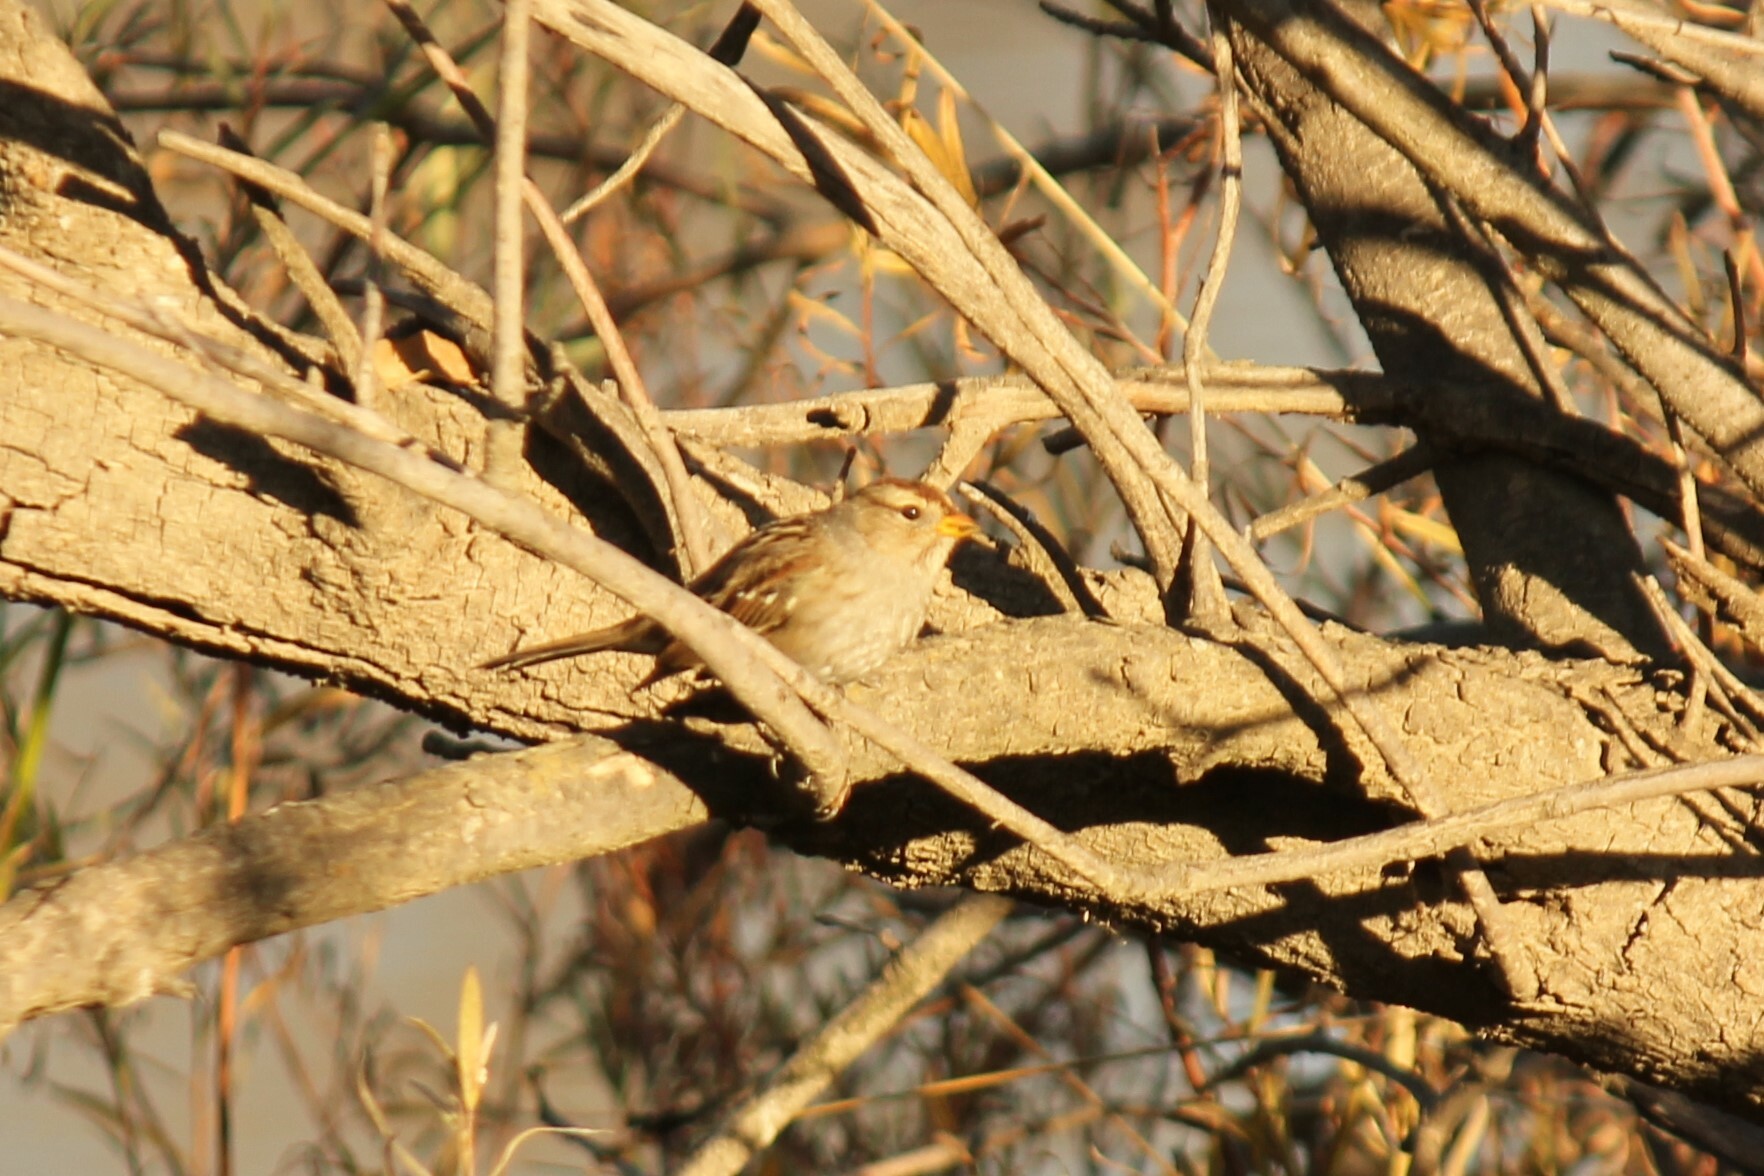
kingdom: Animalia
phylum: Chordata
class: Aves
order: Passeriformes
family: Passerellidae
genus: Zonotrichia
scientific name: Zonotrichia leucophrys
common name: White-crowned sparrow
